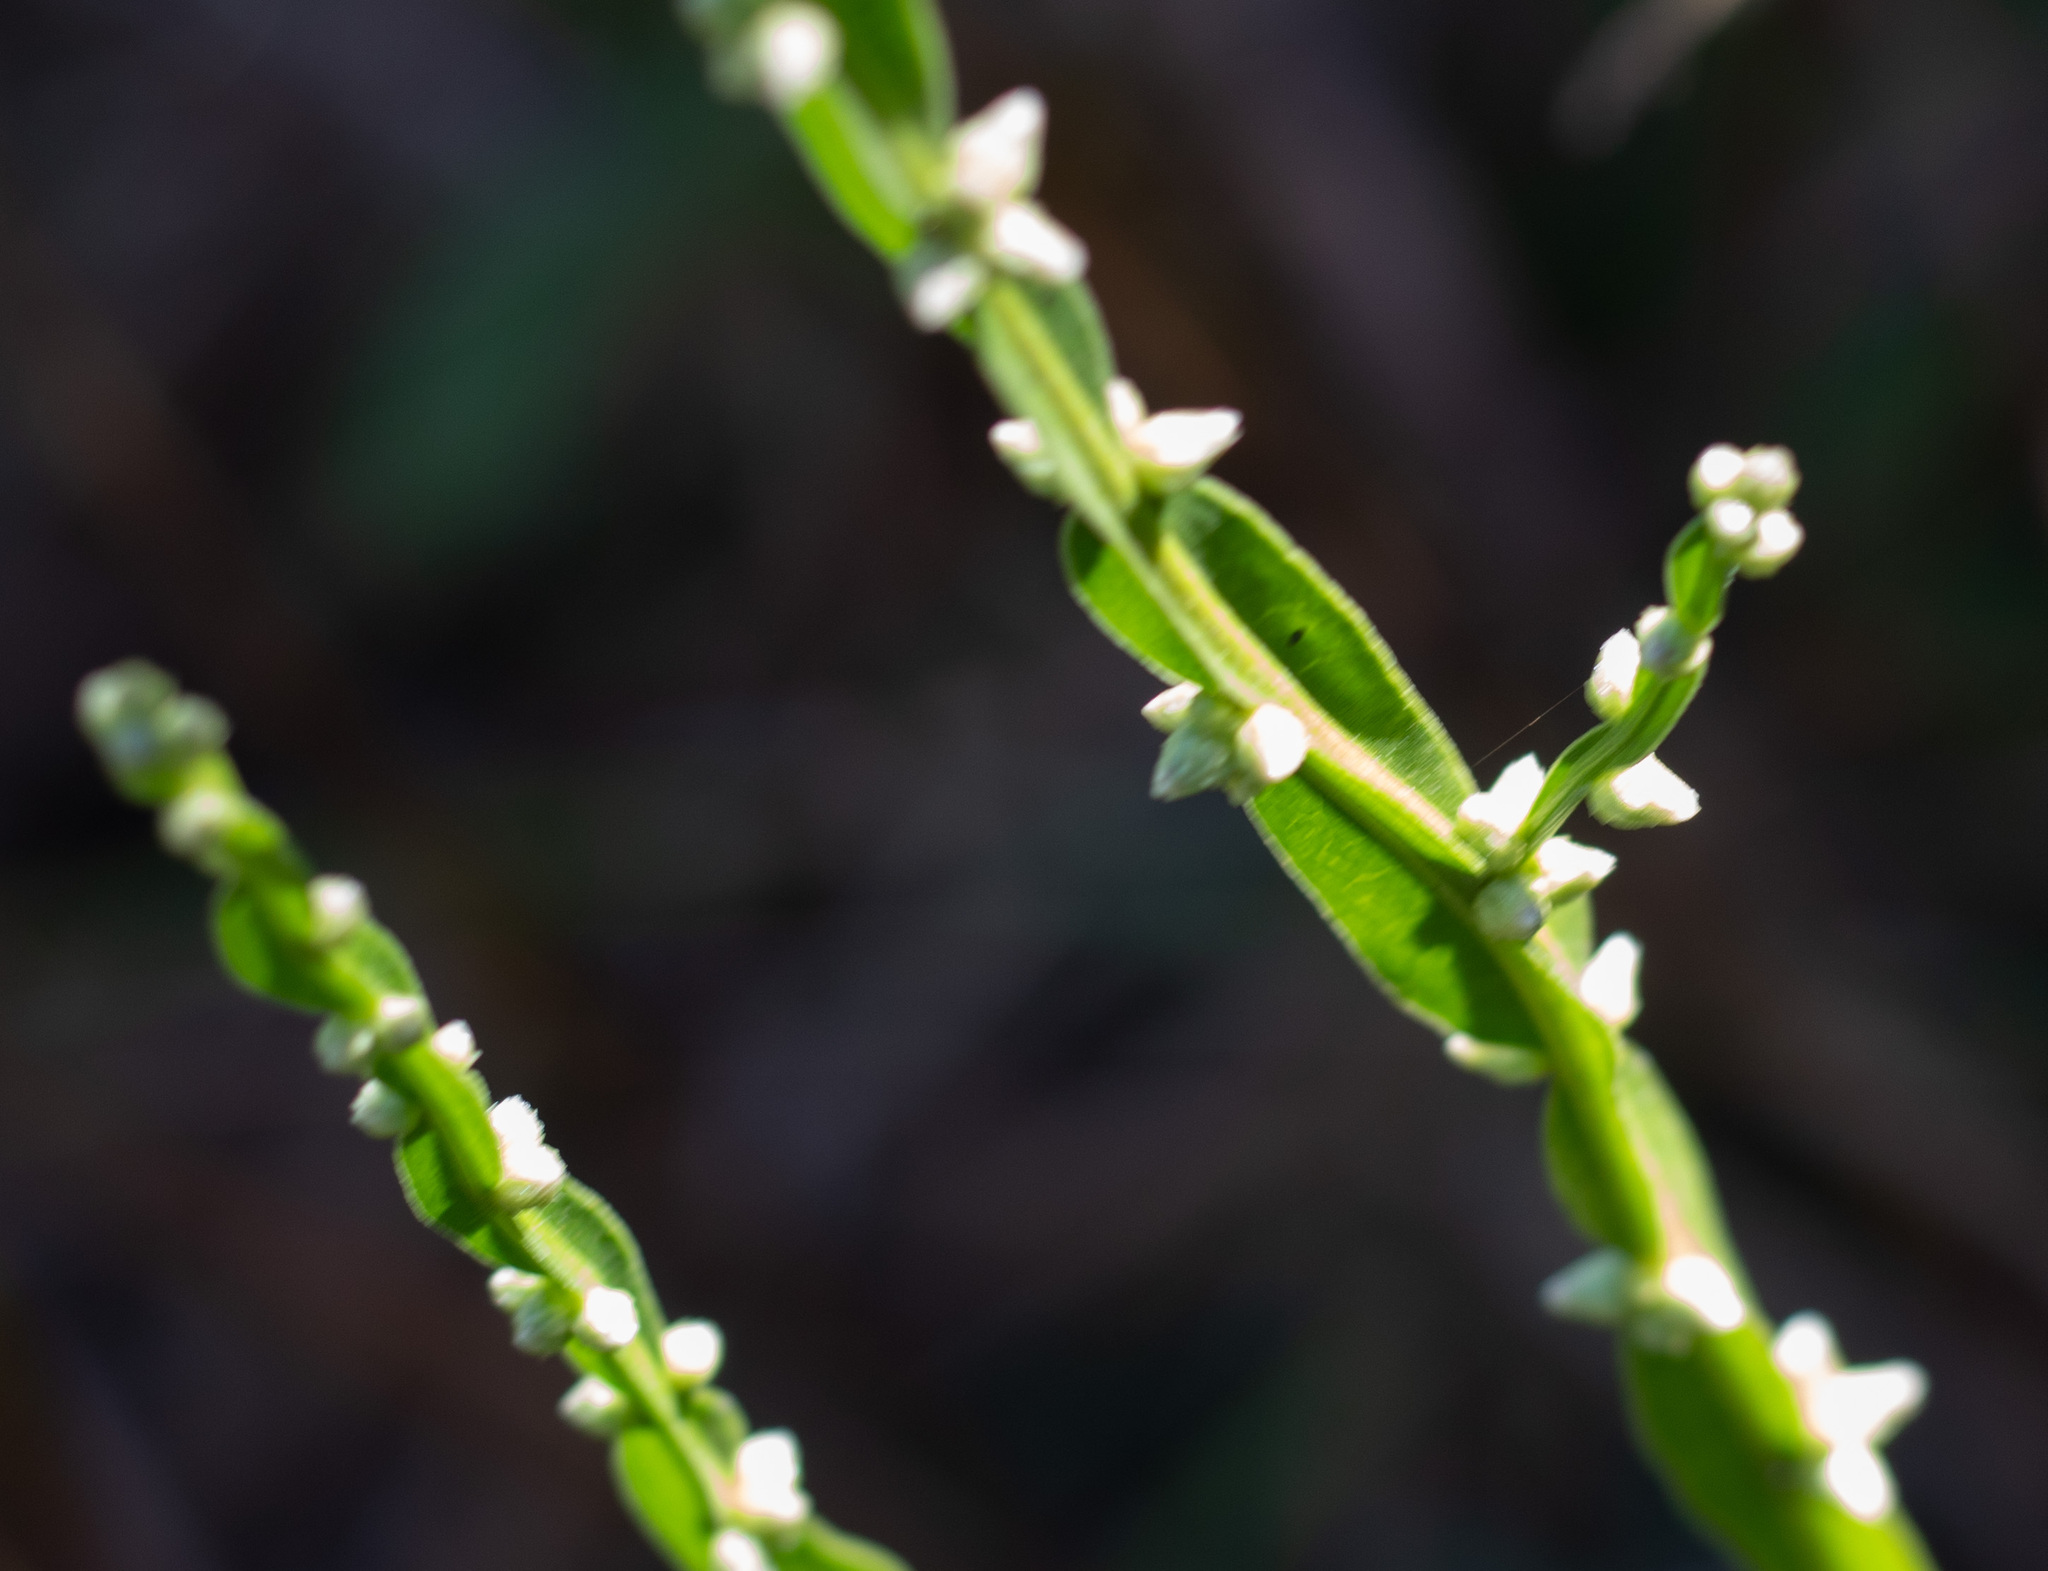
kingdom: Plantae
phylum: Tracheophyta
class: Magnoliopsida
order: Asterales
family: Asteraceae
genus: Baccharis
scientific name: Baccharis trimera
